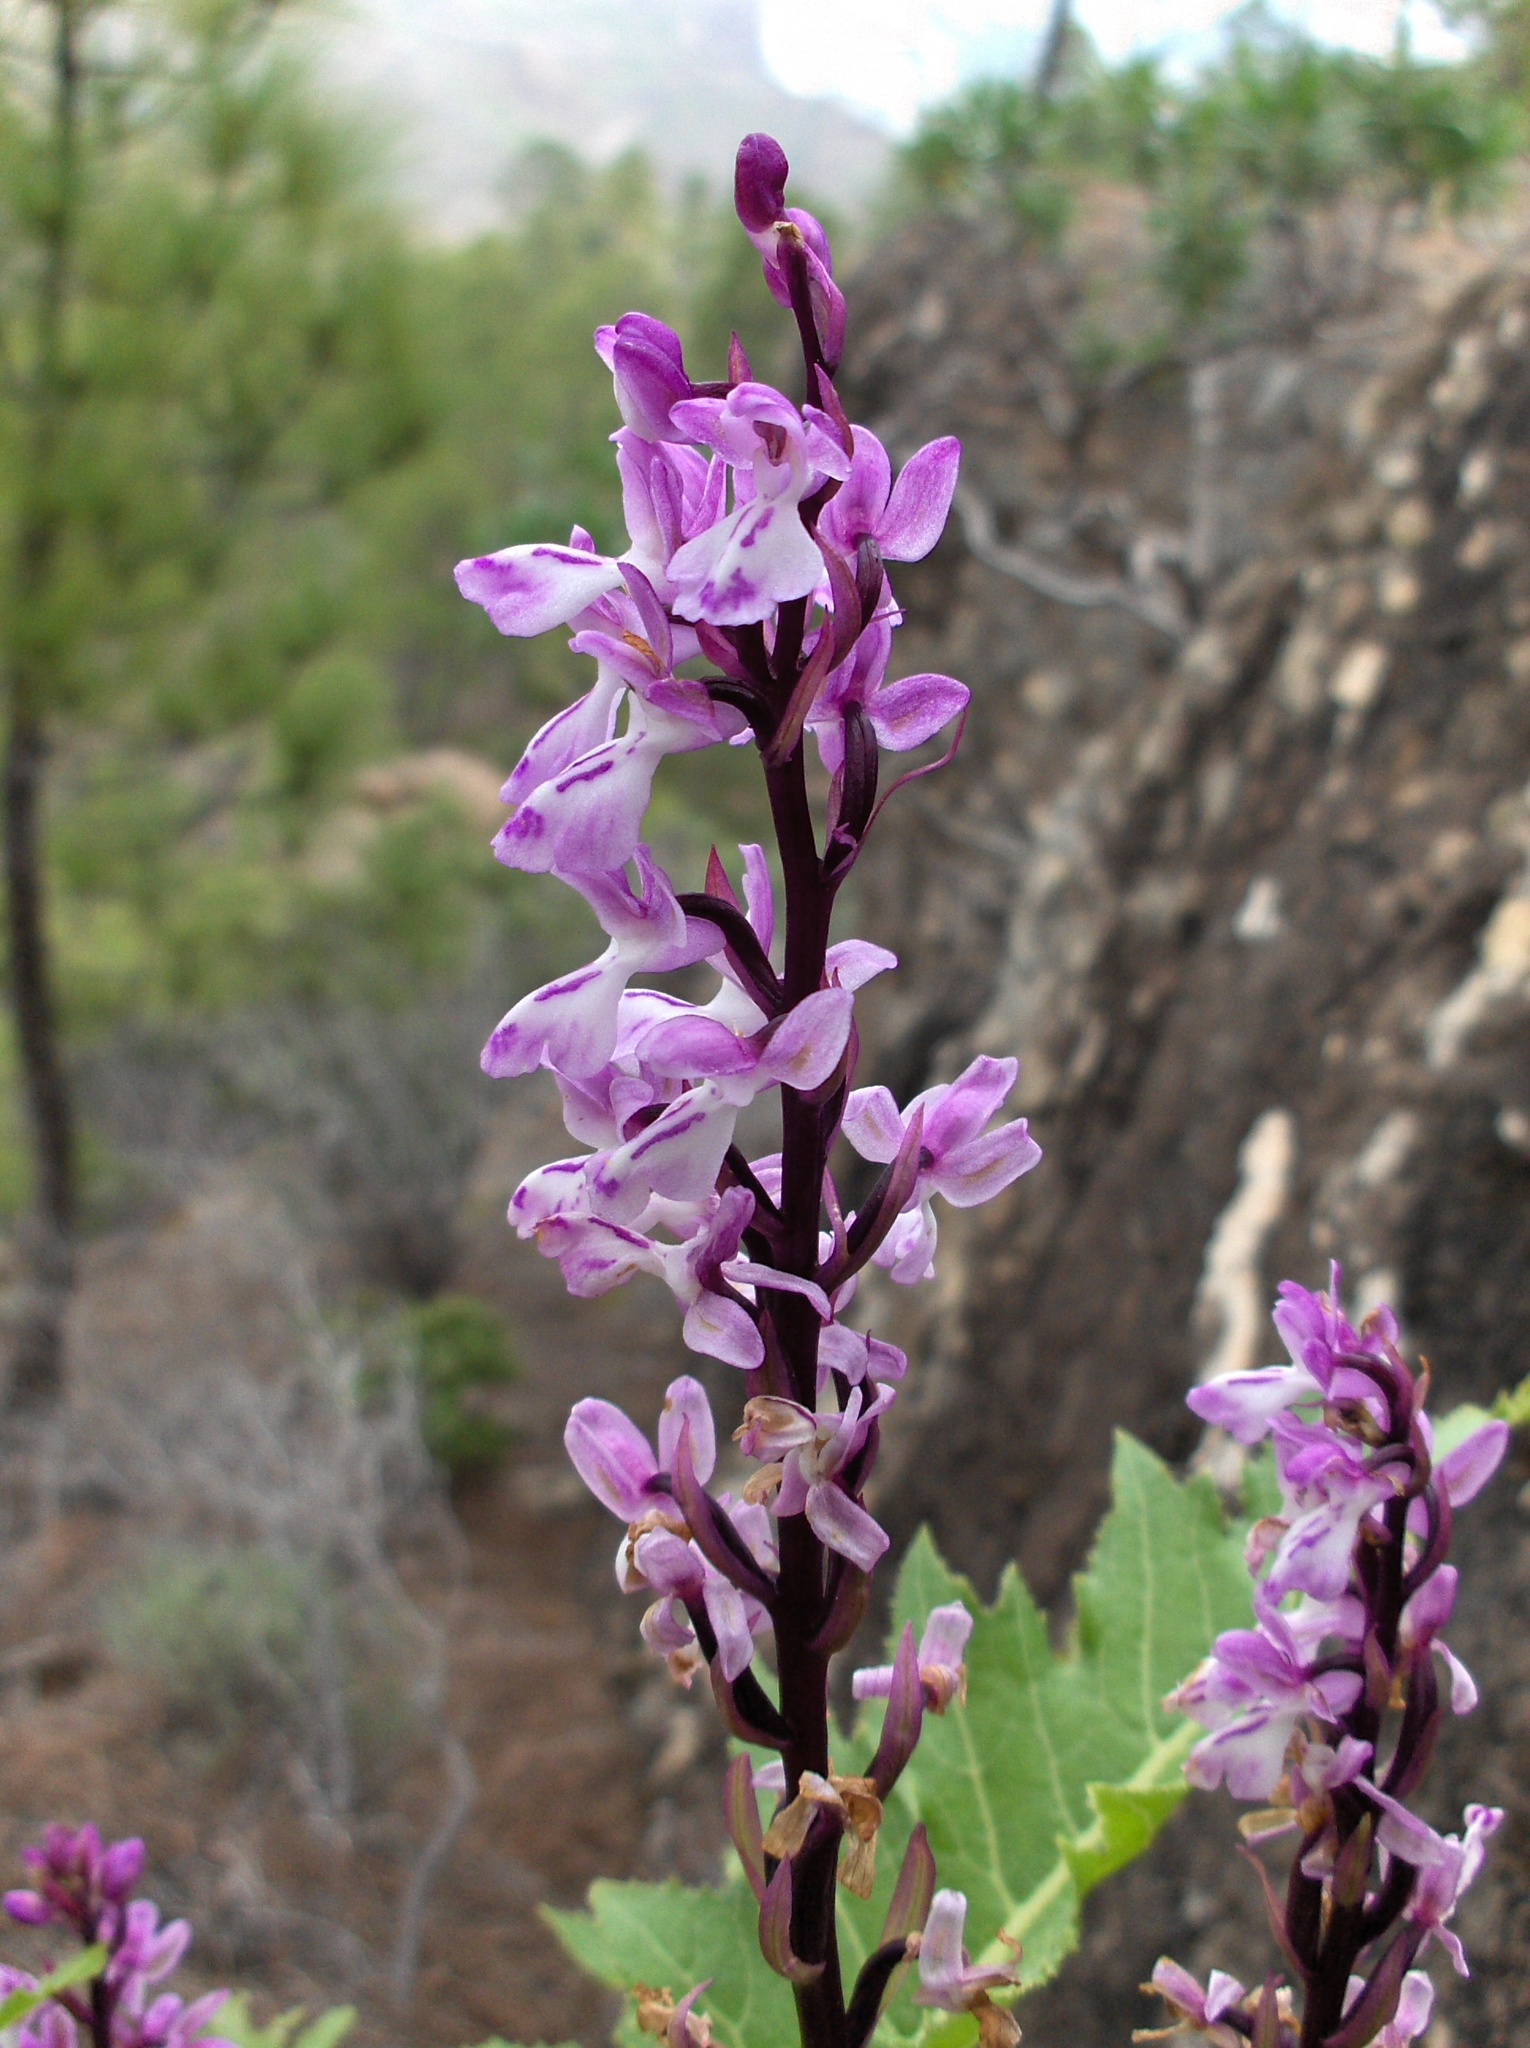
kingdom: Plantae
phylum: Tracheophyta
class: Liliopsida
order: Asparagales
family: Orchidaceae
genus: Orchis
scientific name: Orchis canariensis
